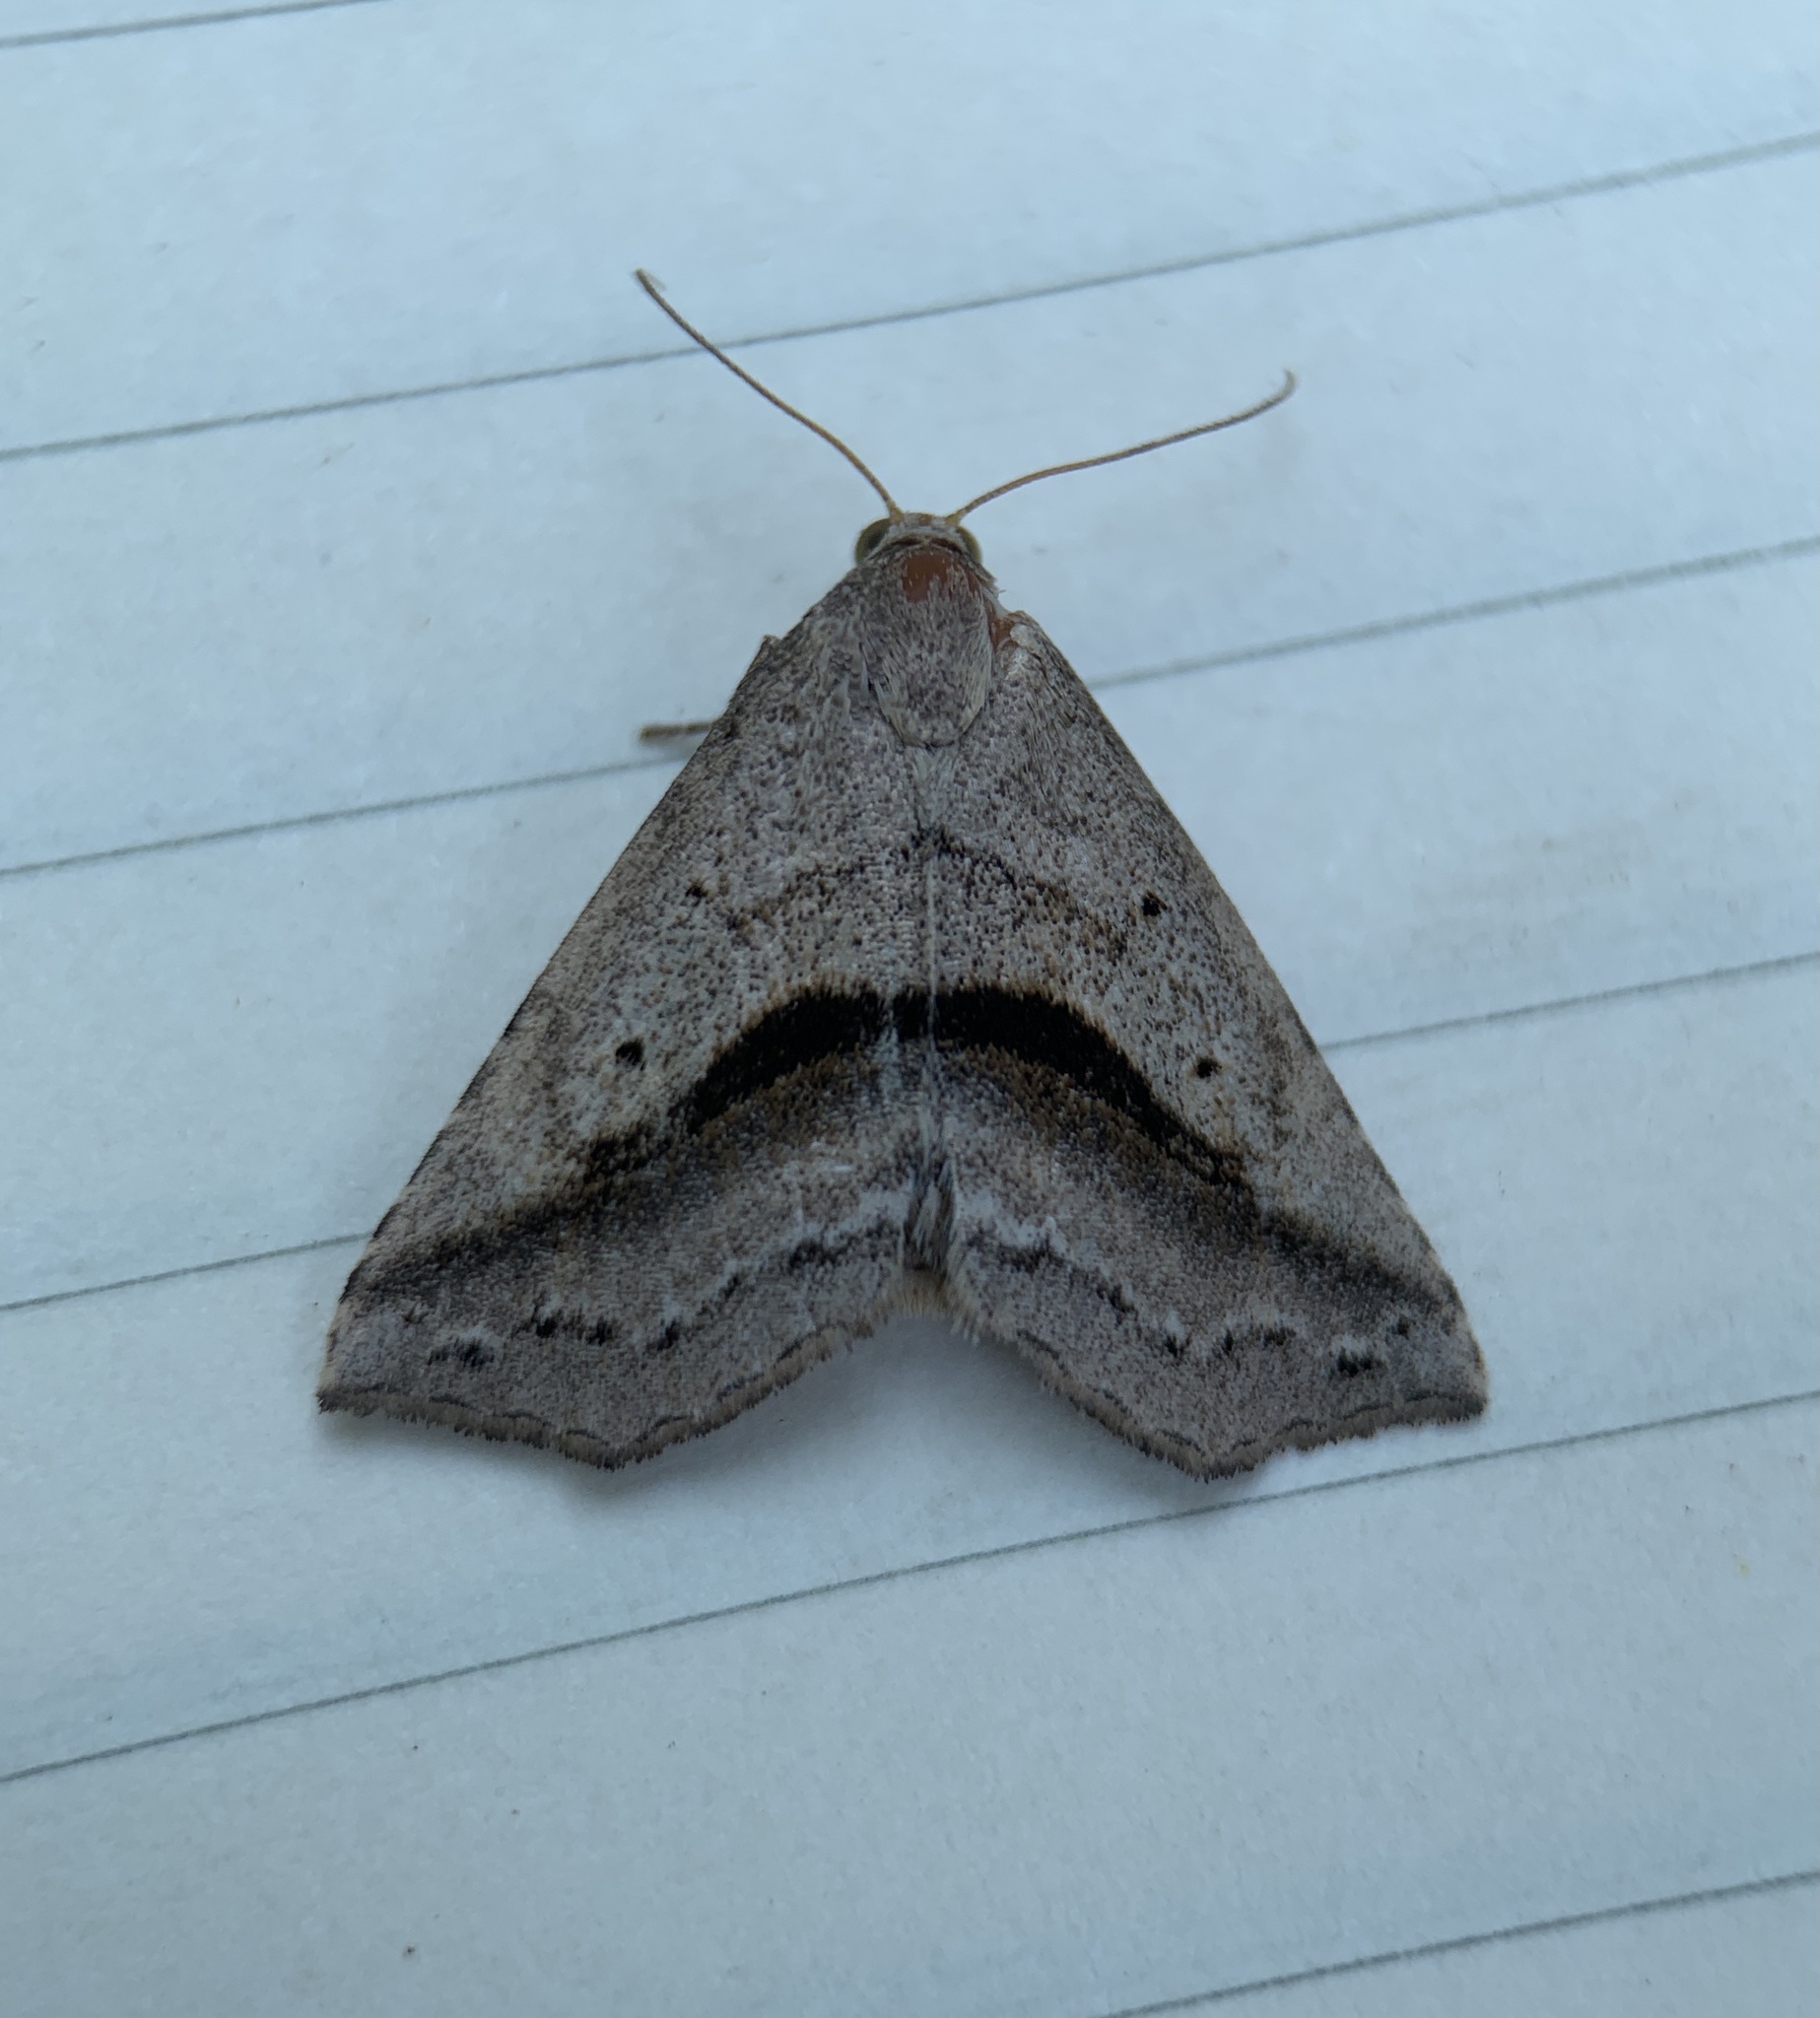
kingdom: Animalia
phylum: Arthropoda
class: Insecta
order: Lepidoptera
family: Erebidae
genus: Spargaloma
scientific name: Spargaloma perditalis
